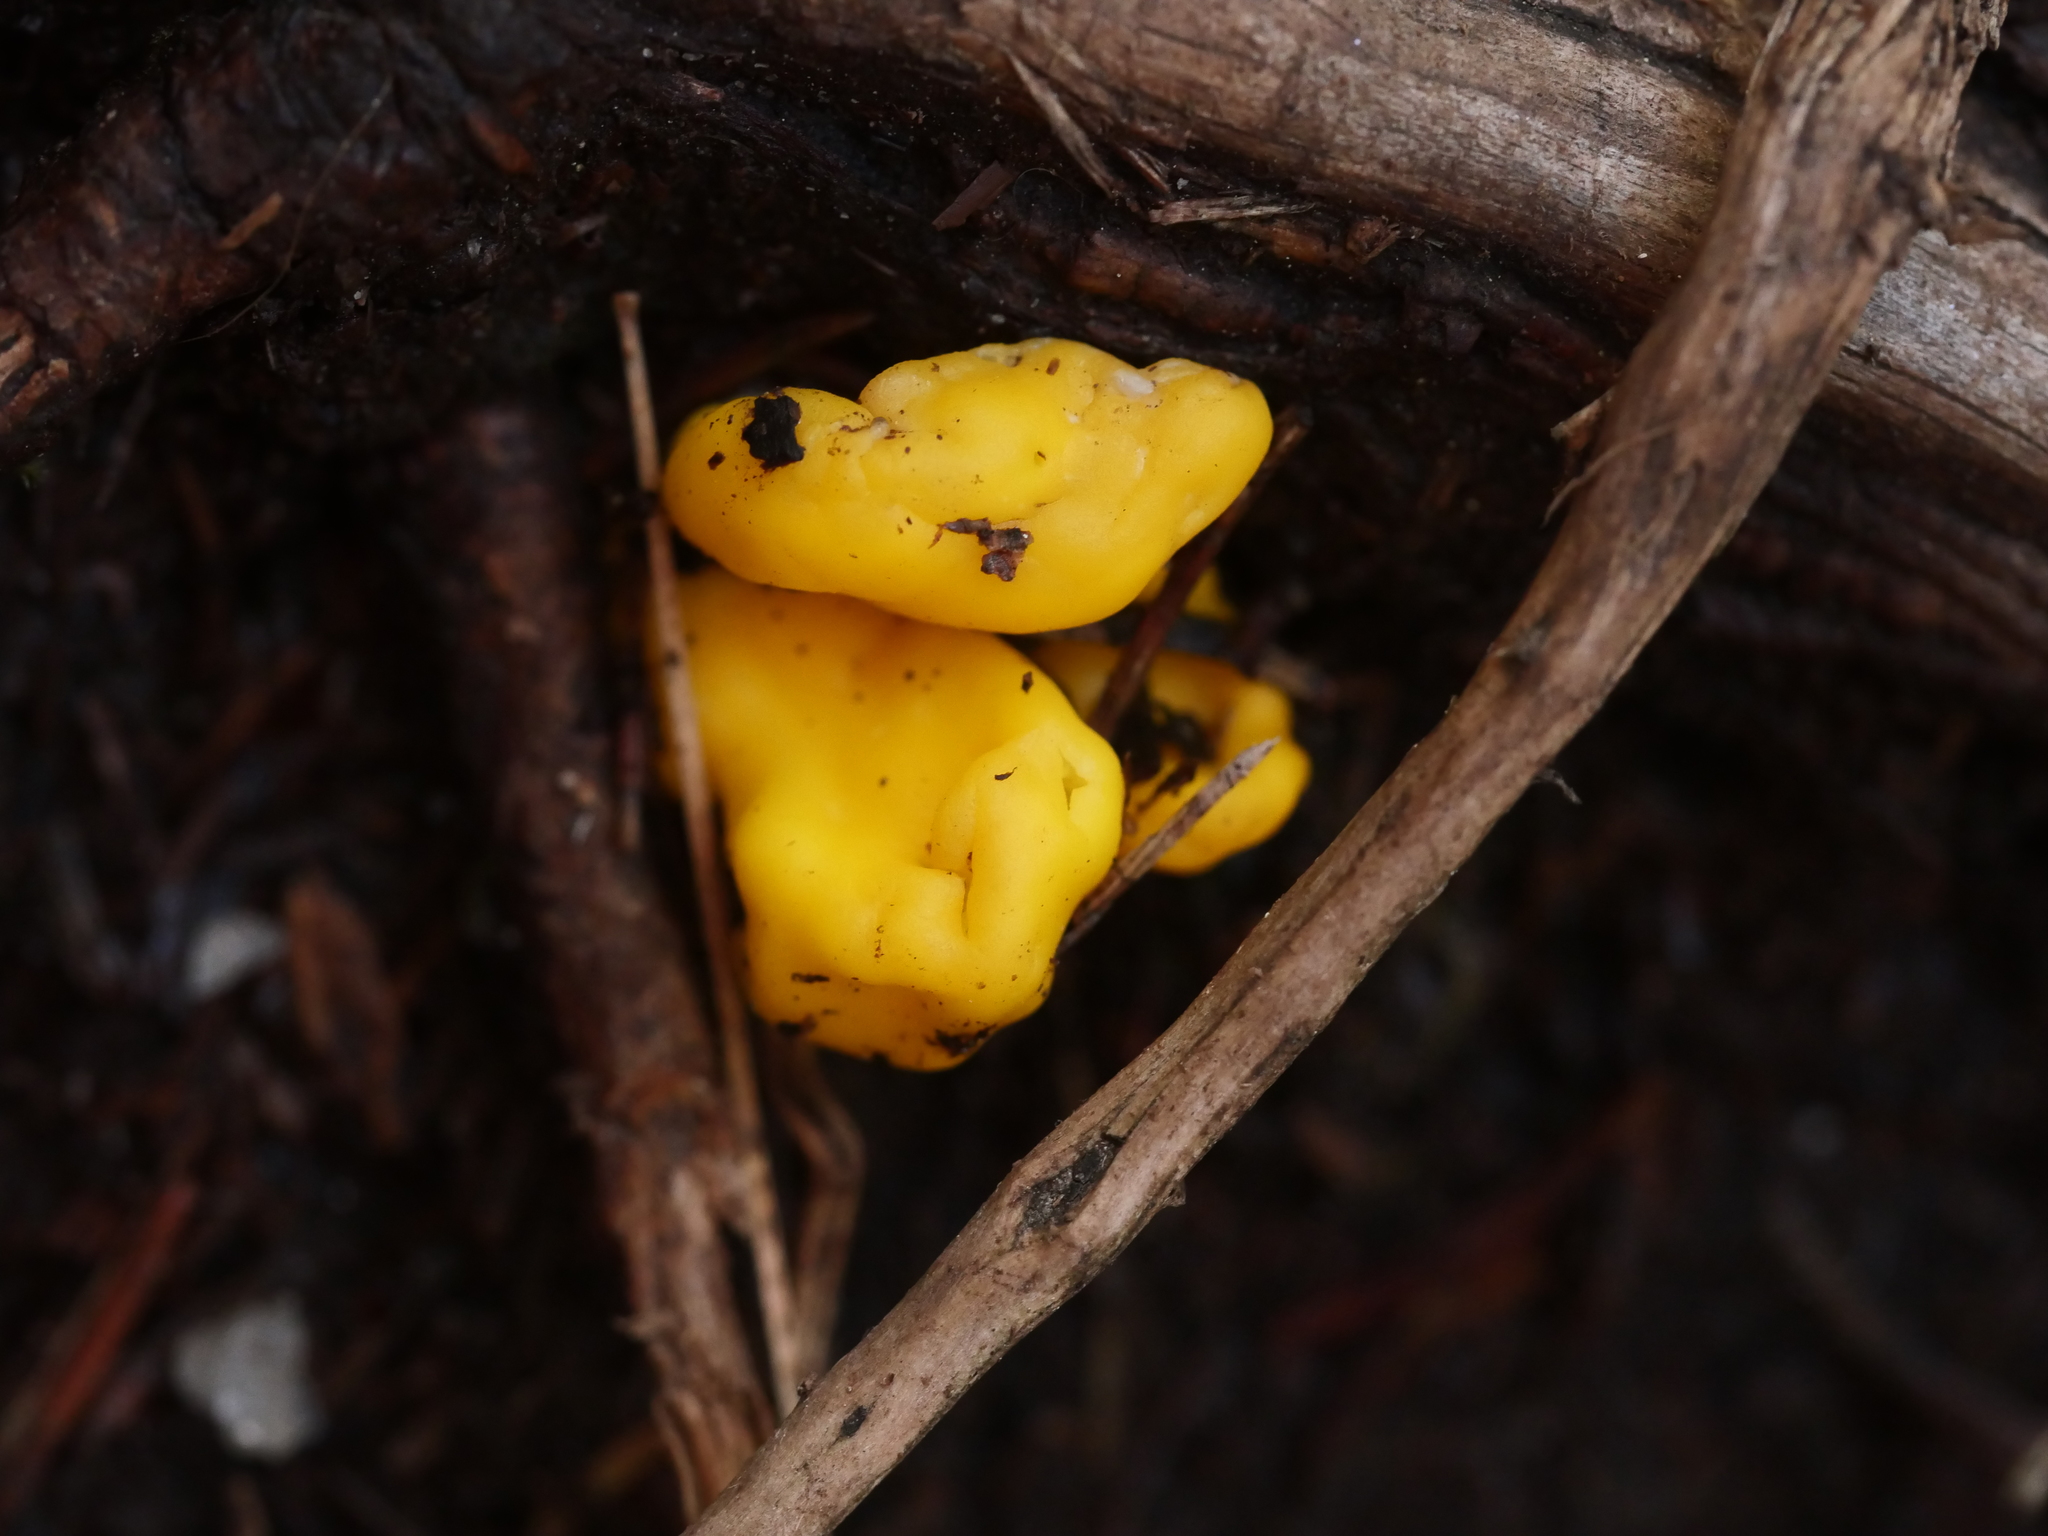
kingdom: Fungi
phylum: Ascomycota
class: Neolectomycetes
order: Neolectales
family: Neolectaceae
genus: Neolecta
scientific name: Neolecta irregularis
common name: Irregular earth tongue
